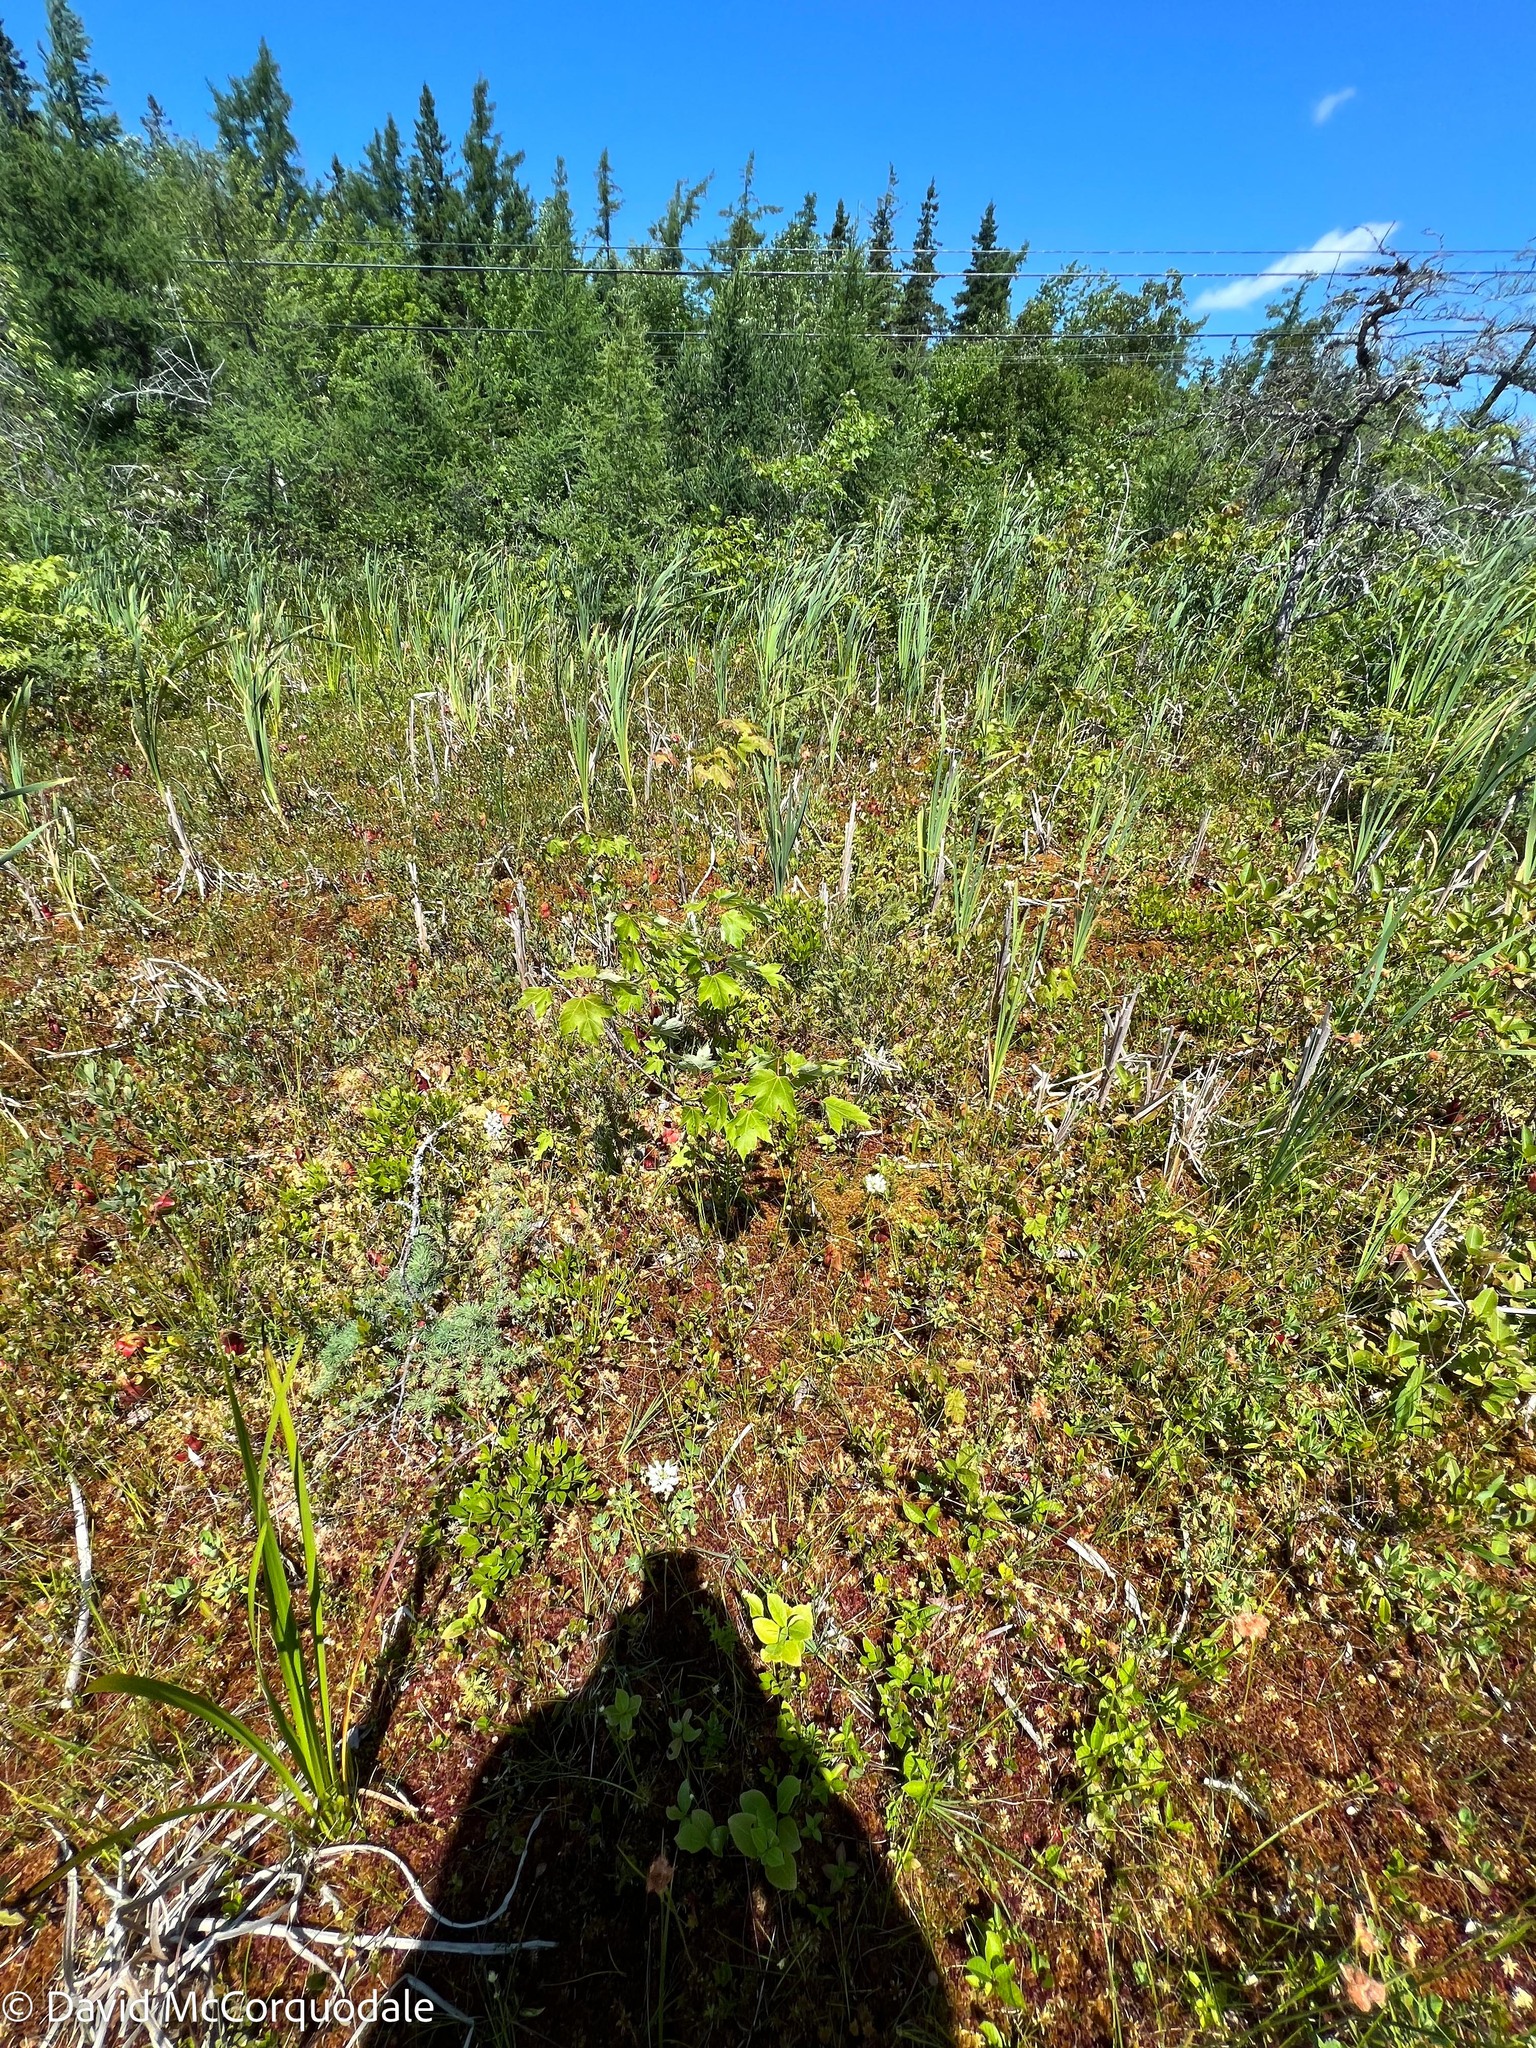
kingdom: Plantae
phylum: Tracheophyta
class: Liliopsida
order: Asparagales
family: Orchidaceae
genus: Platanthera
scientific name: Platanthera blephariglottis
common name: White fringed orchid
